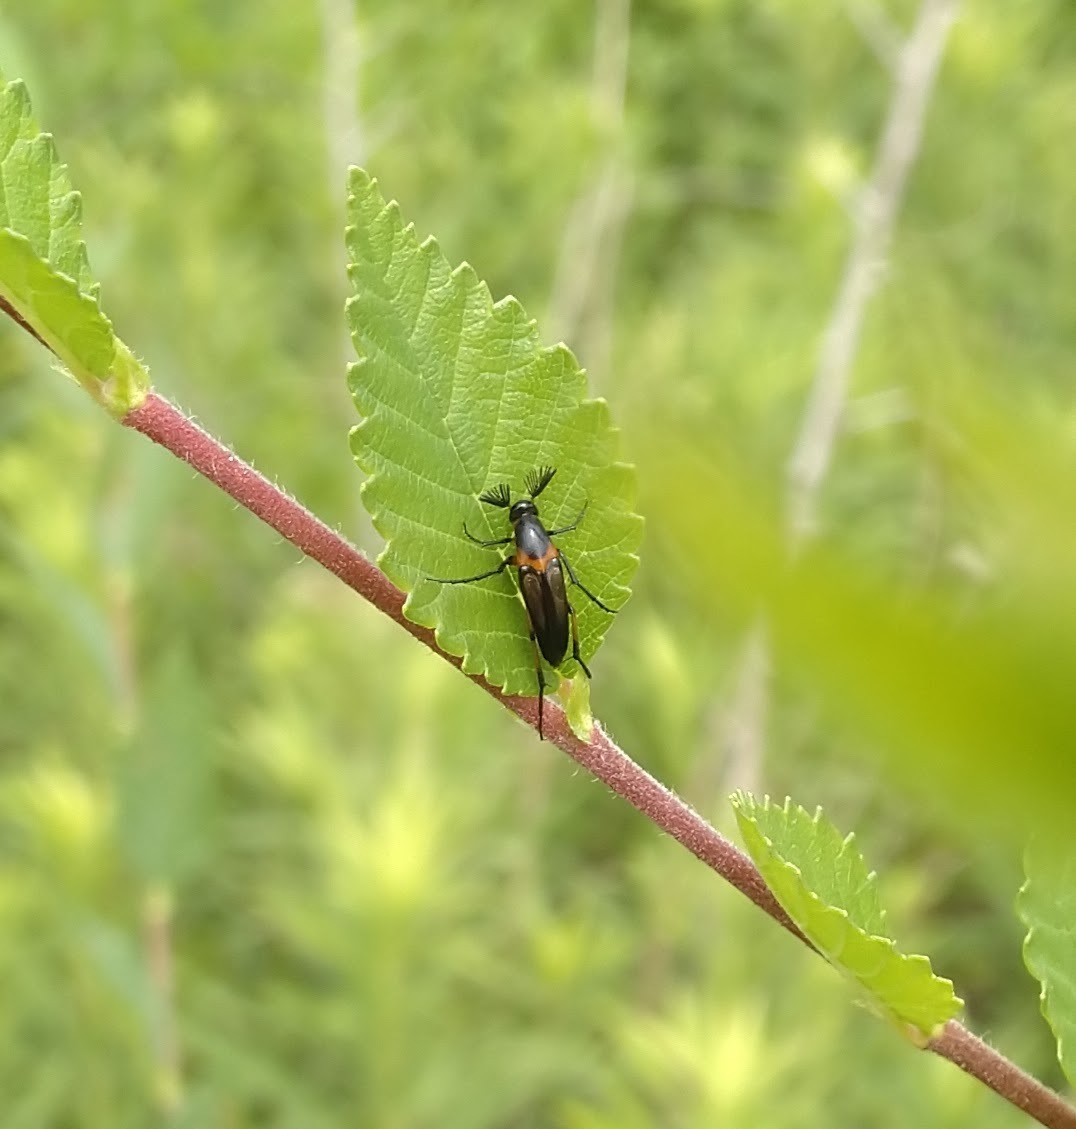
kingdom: Animalia
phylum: Arthropoda
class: Insecta
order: Coleoptera
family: Ripiphoridae
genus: Macrosiagon
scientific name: Macrosiagon limbatum
